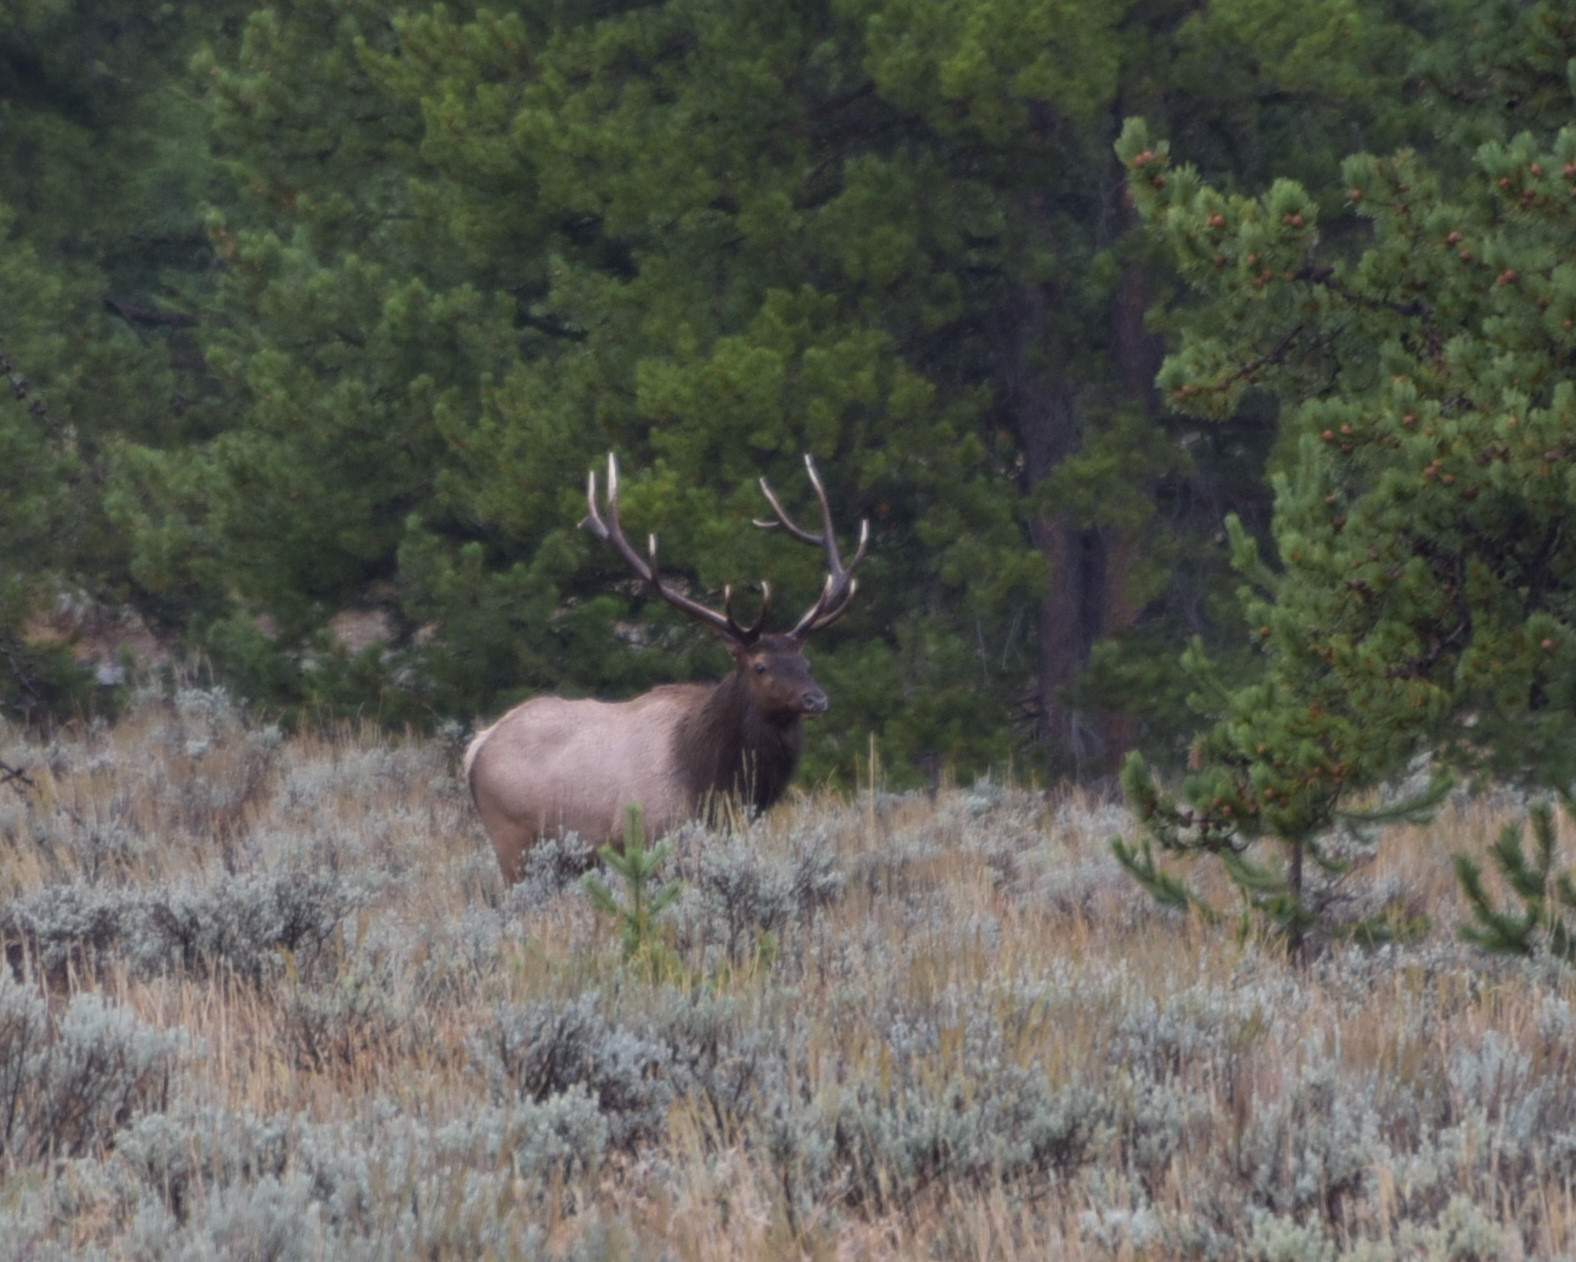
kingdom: Animalia
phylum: Chordata
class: Mammalia
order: Artiodactyla
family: Cervidae
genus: Cervus
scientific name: Cervus elaphus
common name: Red deer
